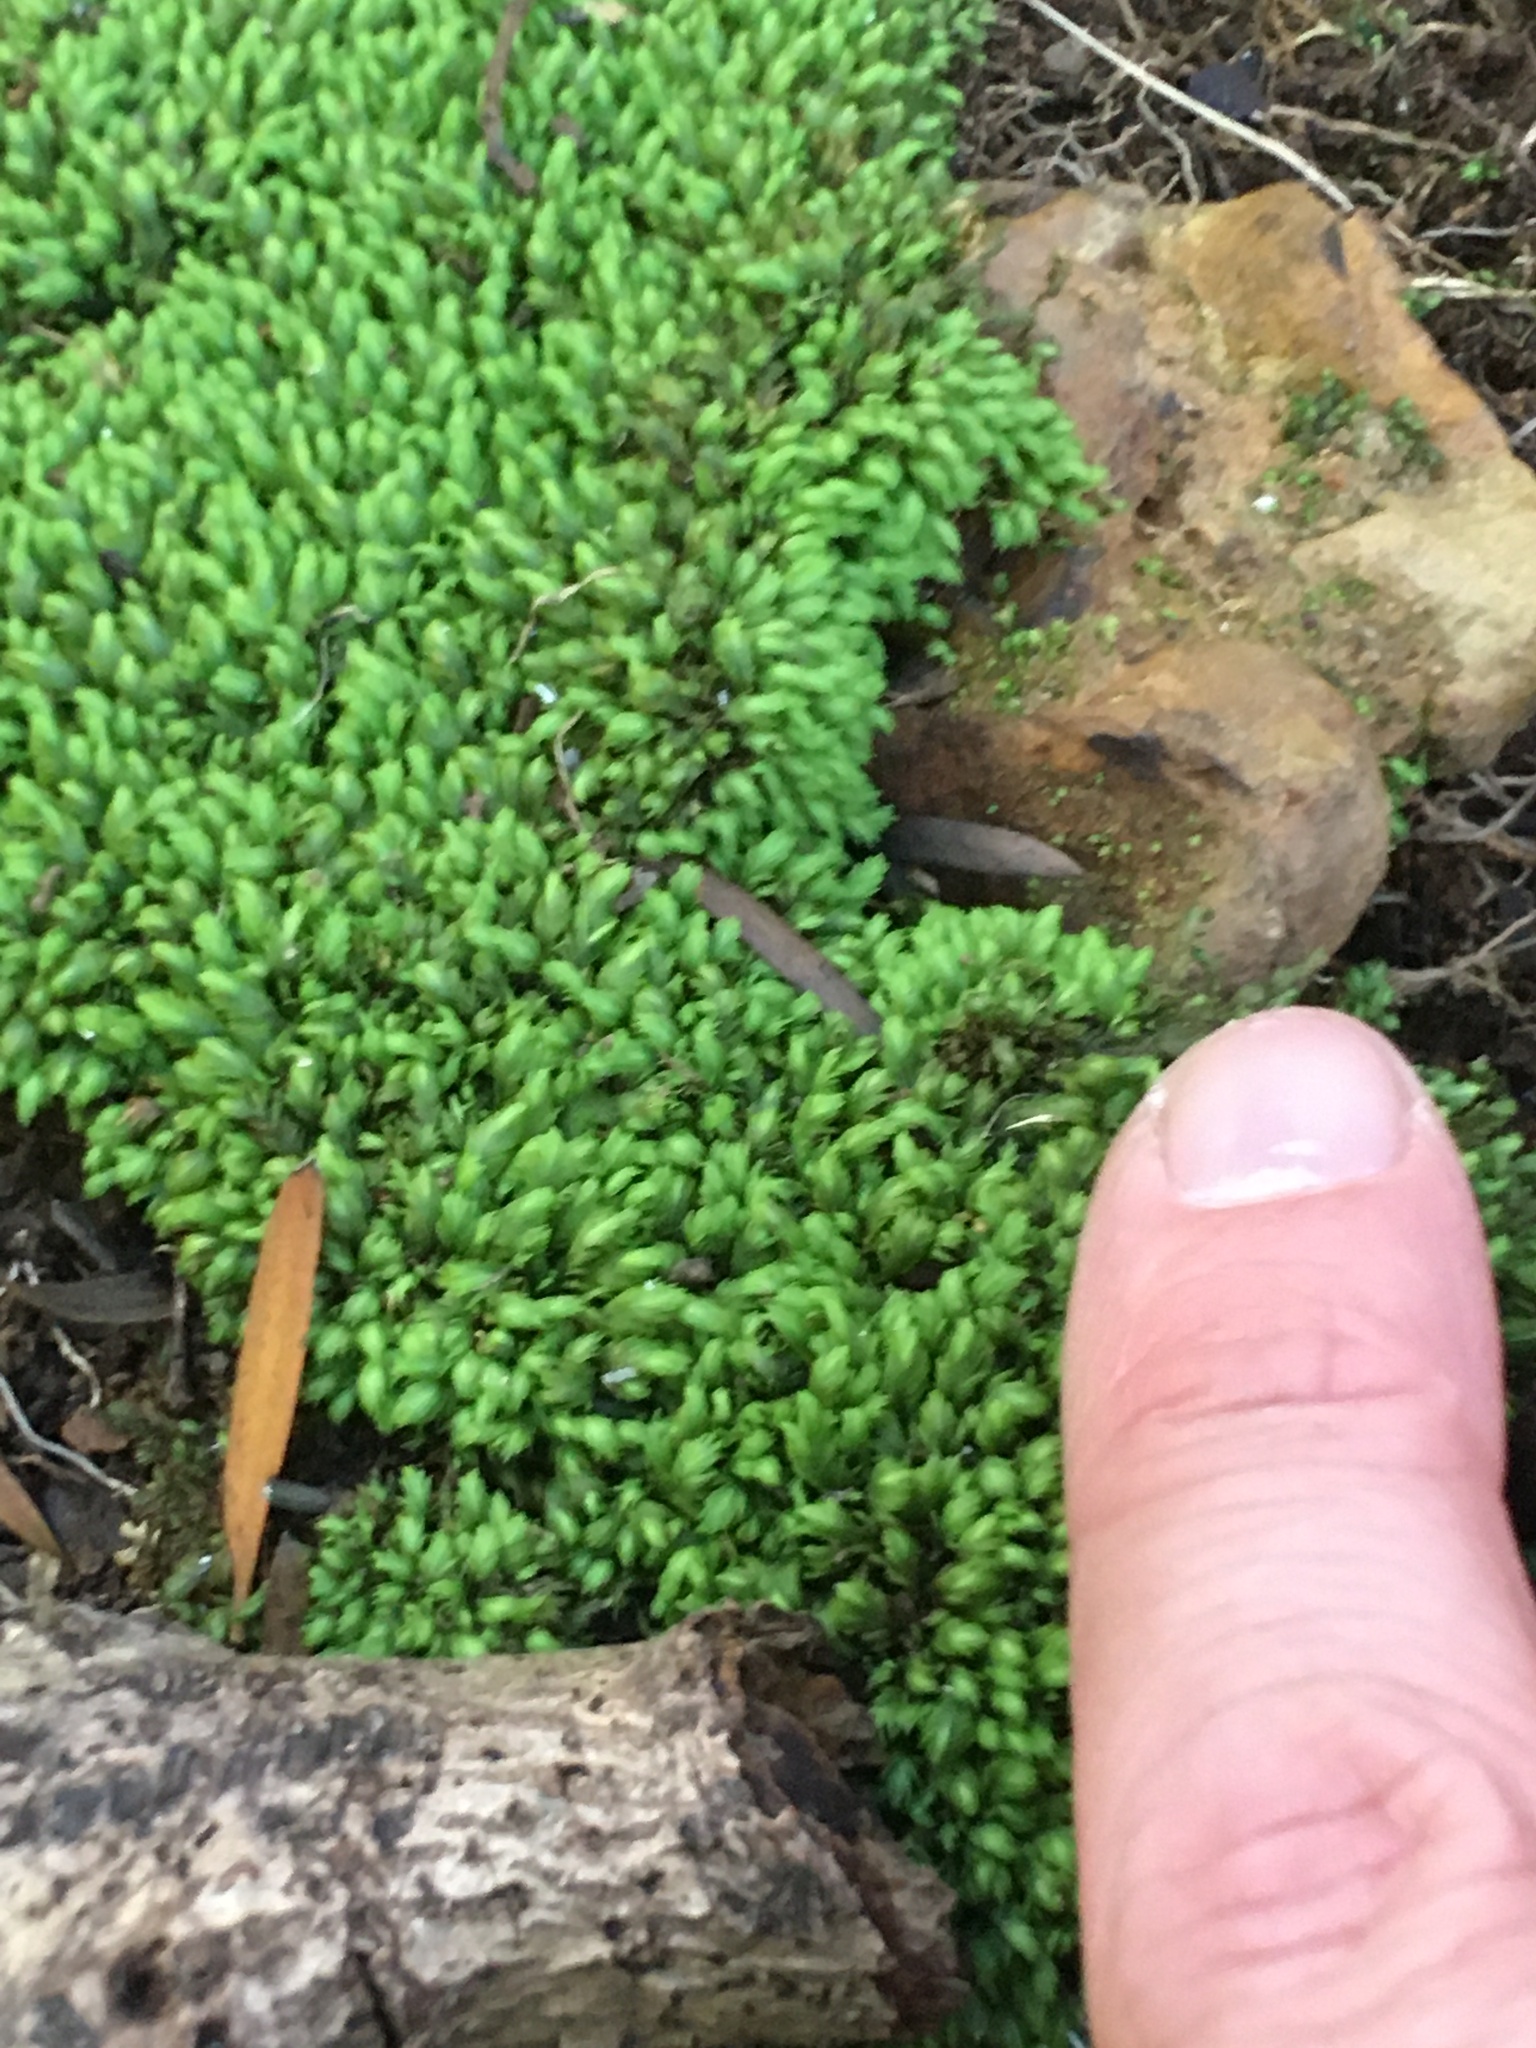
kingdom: Plantae
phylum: Bryophyta
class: Bryopsida
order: Dicranales
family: Fissidentaceae
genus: Fissidens
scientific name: Fissidens ovatus
